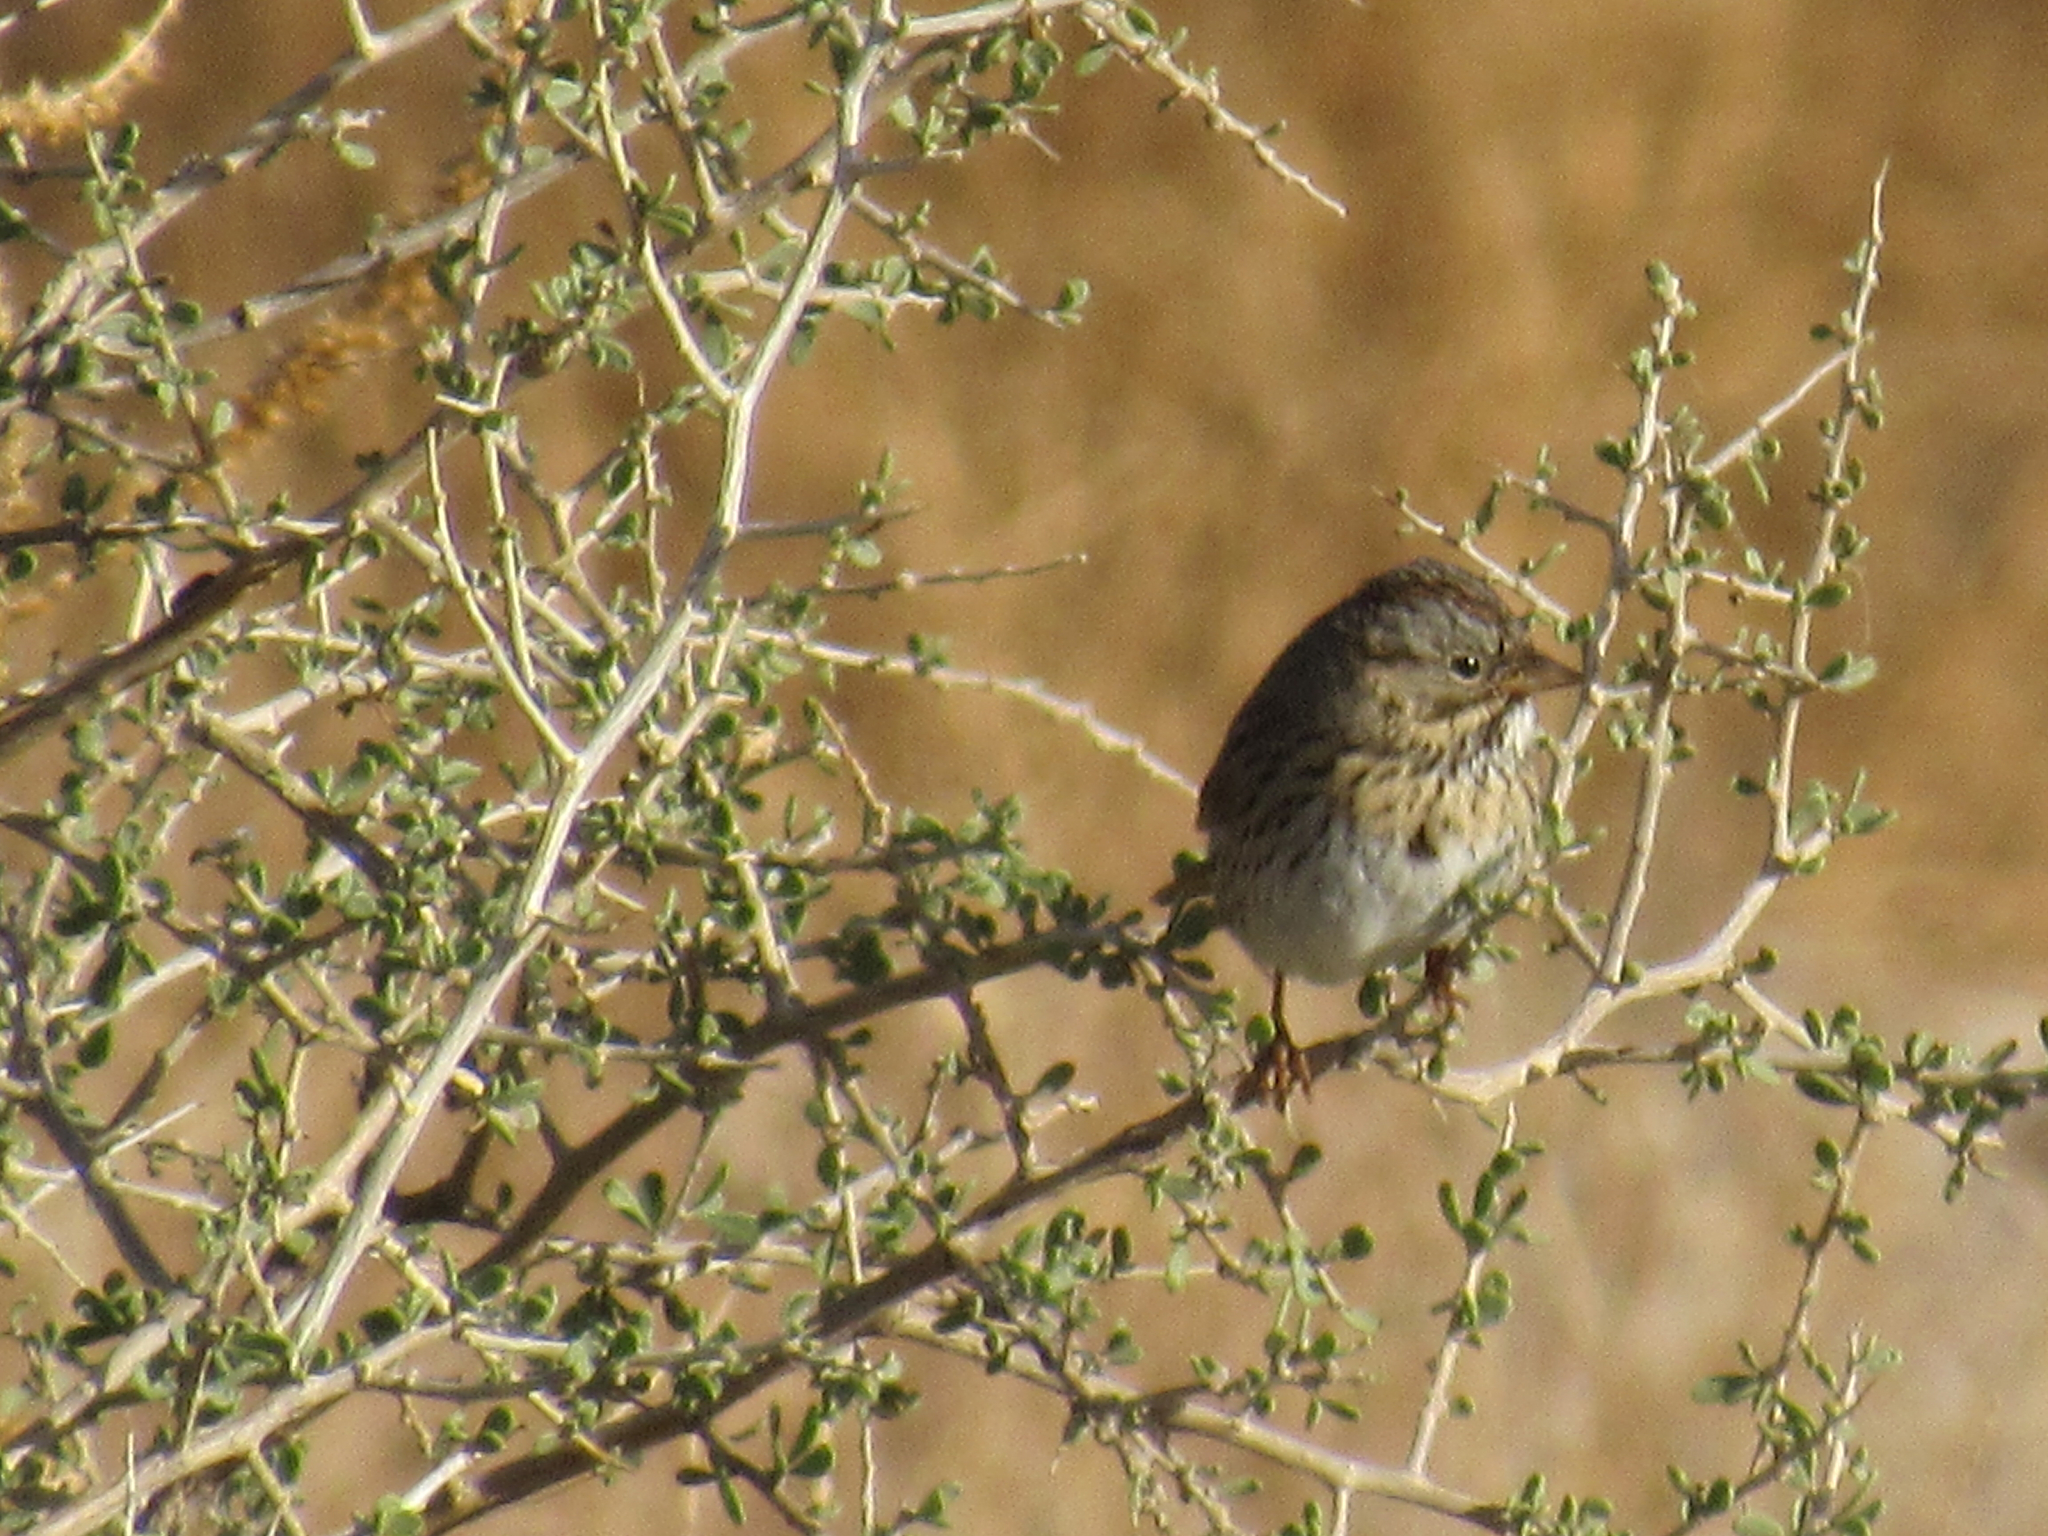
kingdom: Animalia
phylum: Chordata
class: Aves
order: Passeriformes
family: Passerellidae
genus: Melospiza
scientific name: Melospiza lincolnii
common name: Lincoln's sparrow
